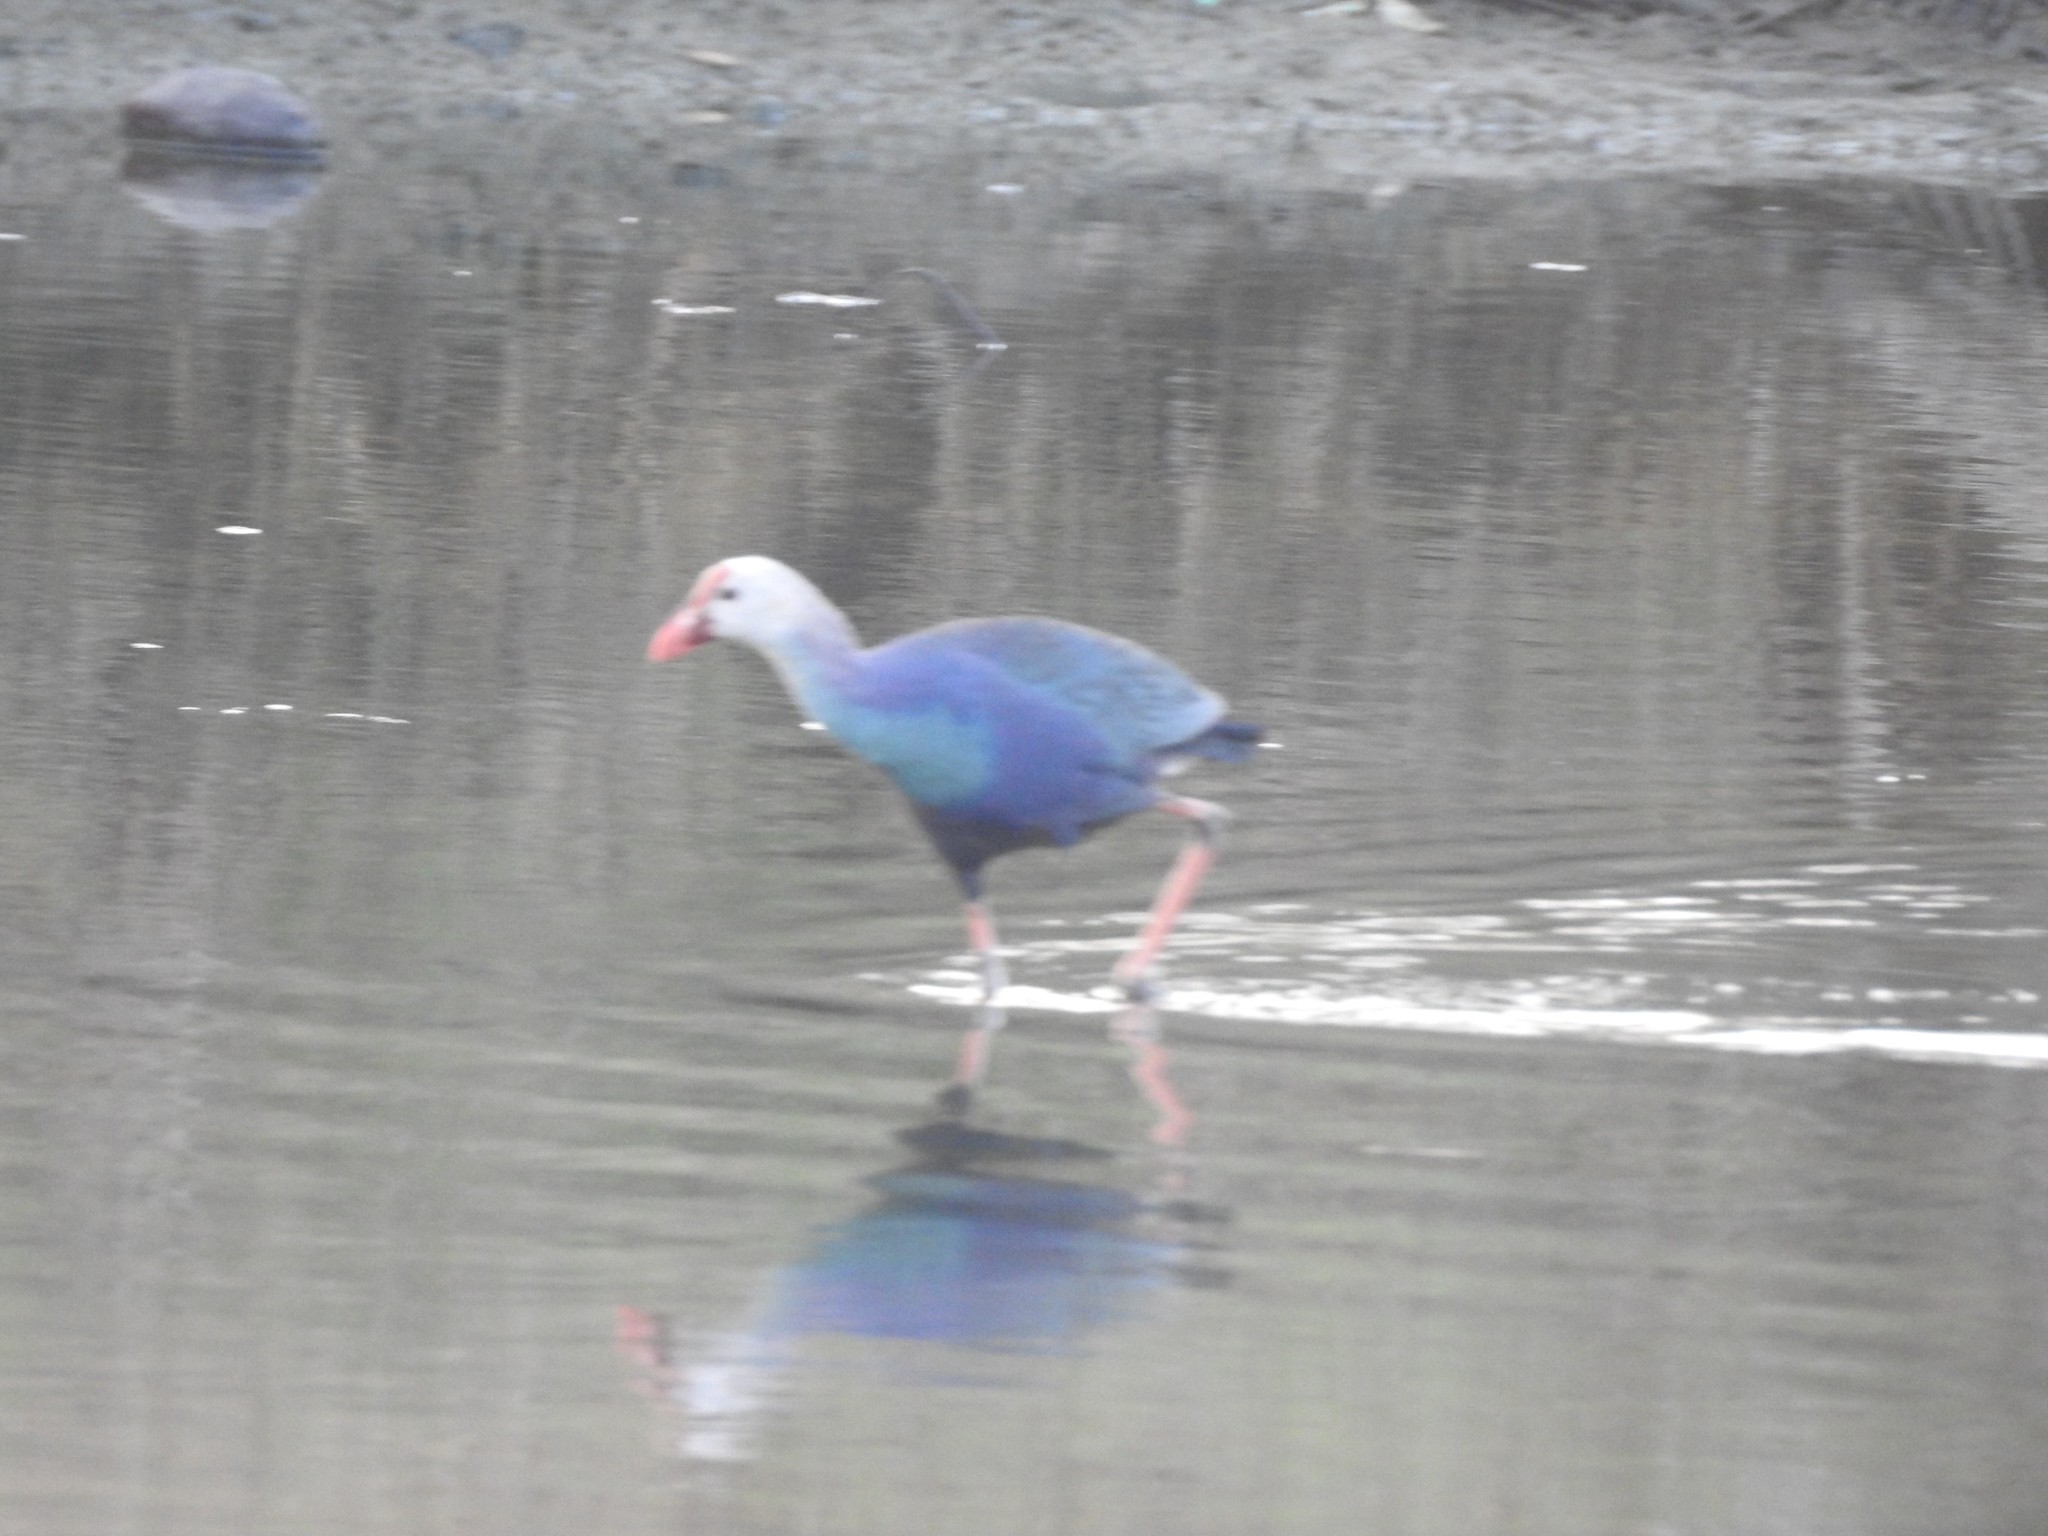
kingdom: Animalia
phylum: Chordata
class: Aves
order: Gruiformes
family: Rallidae
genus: Porphyrio
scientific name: Porphyrio porphyrio
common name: Purple swamphen
